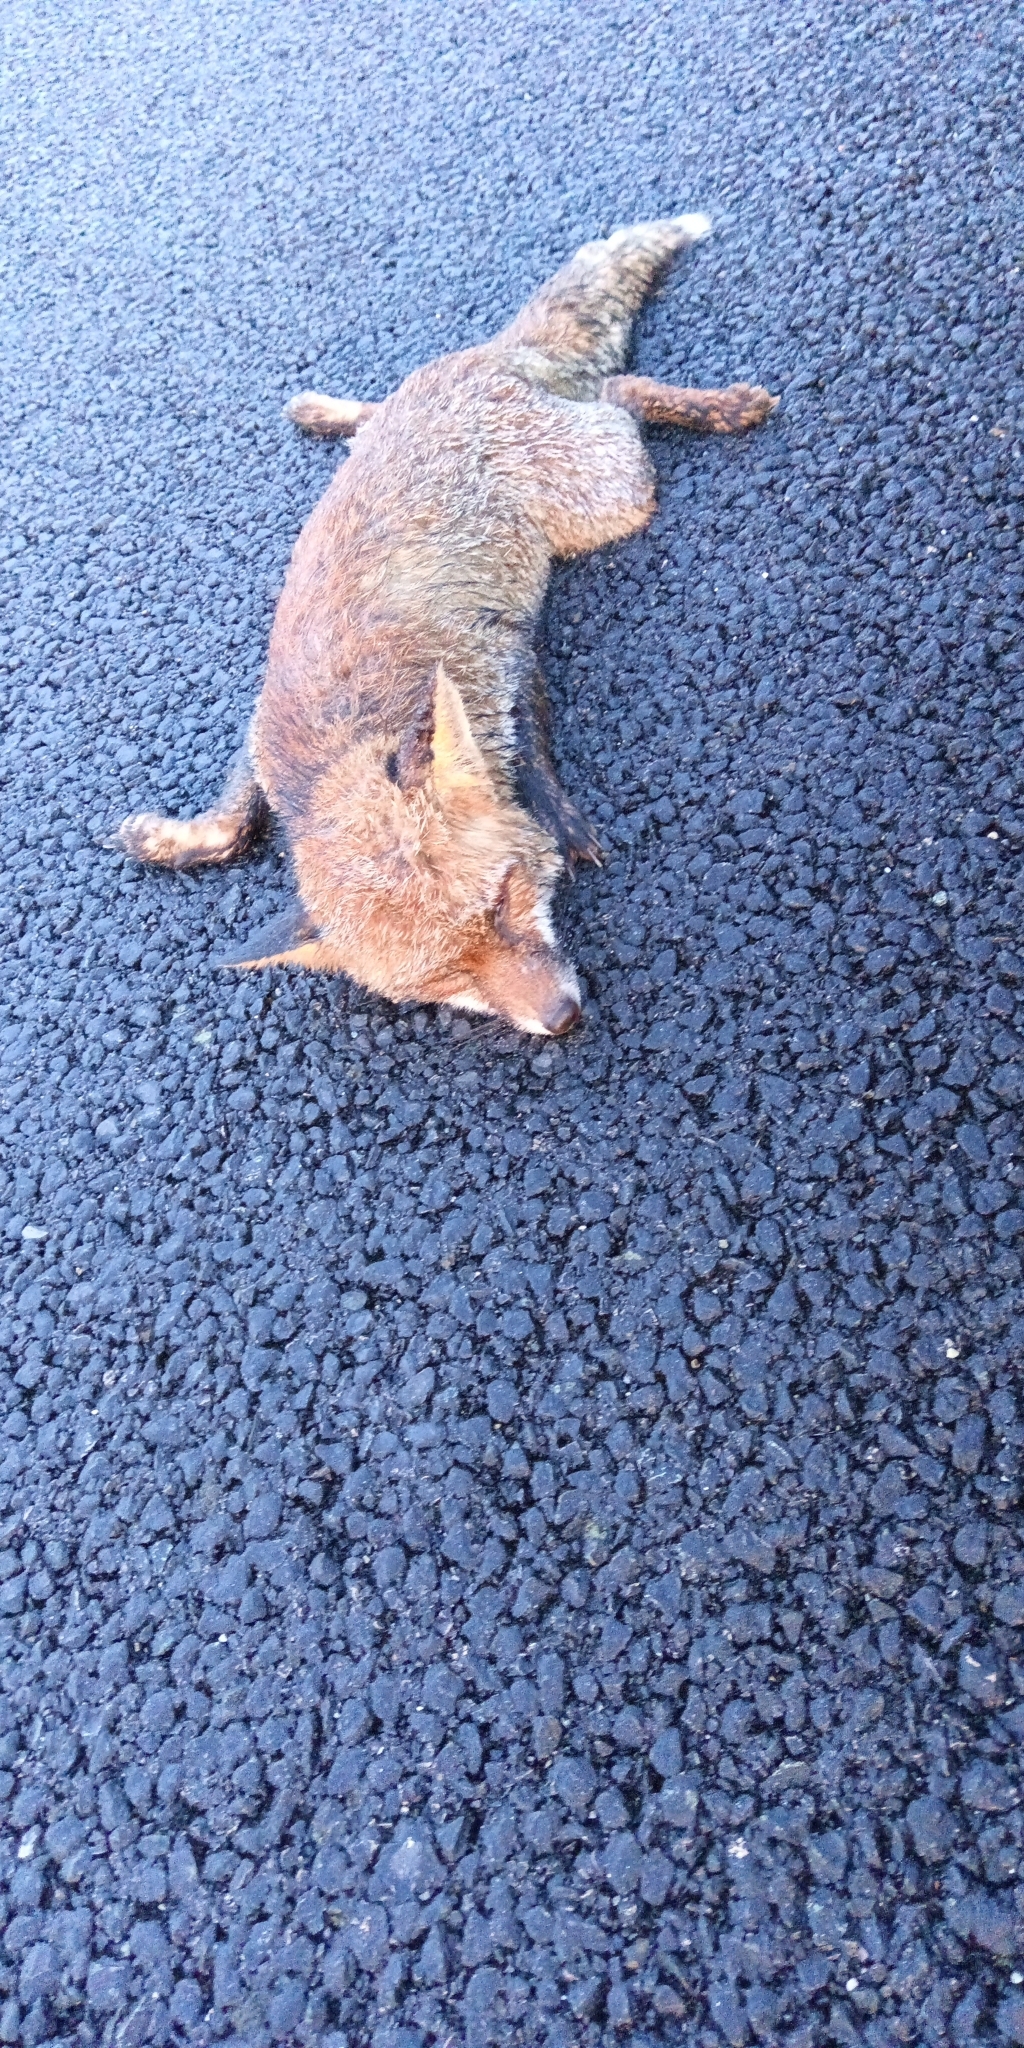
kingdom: Animalia
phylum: Chordata
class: Mammalia
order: Carnivora
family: Canidae
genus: Vulpes
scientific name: Vulpes vulpes
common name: Red fox
